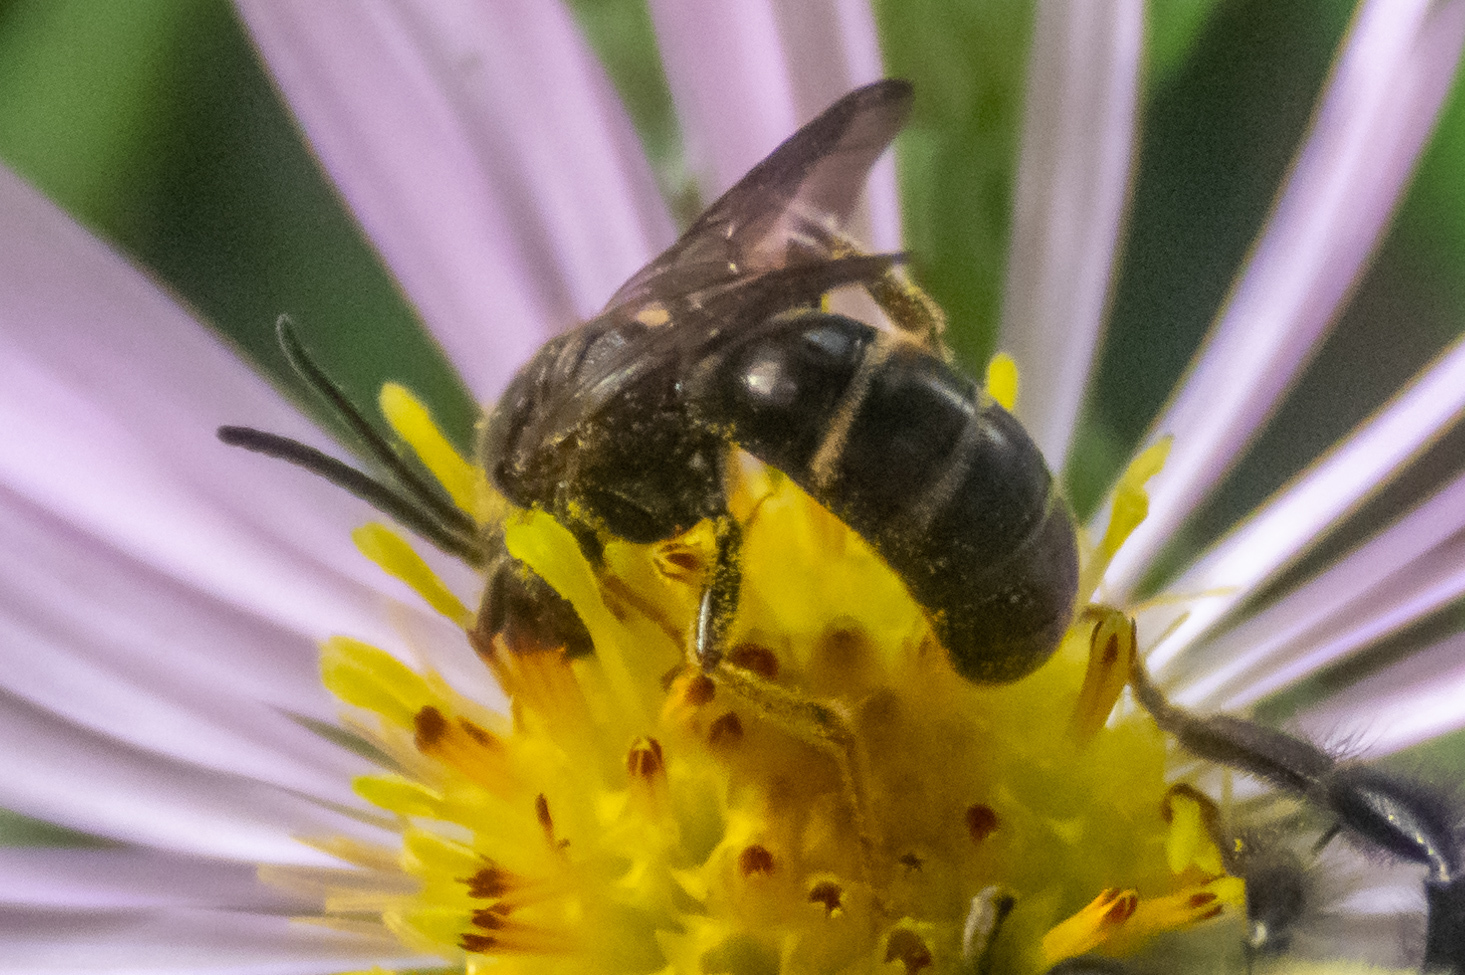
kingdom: Animalia
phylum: Arthropoda
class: Insecta
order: Hymenoptera
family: Halictidae
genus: Lasioglossum
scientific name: Lasioglossum fuscipenne
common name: Brown-winged sweat bee
